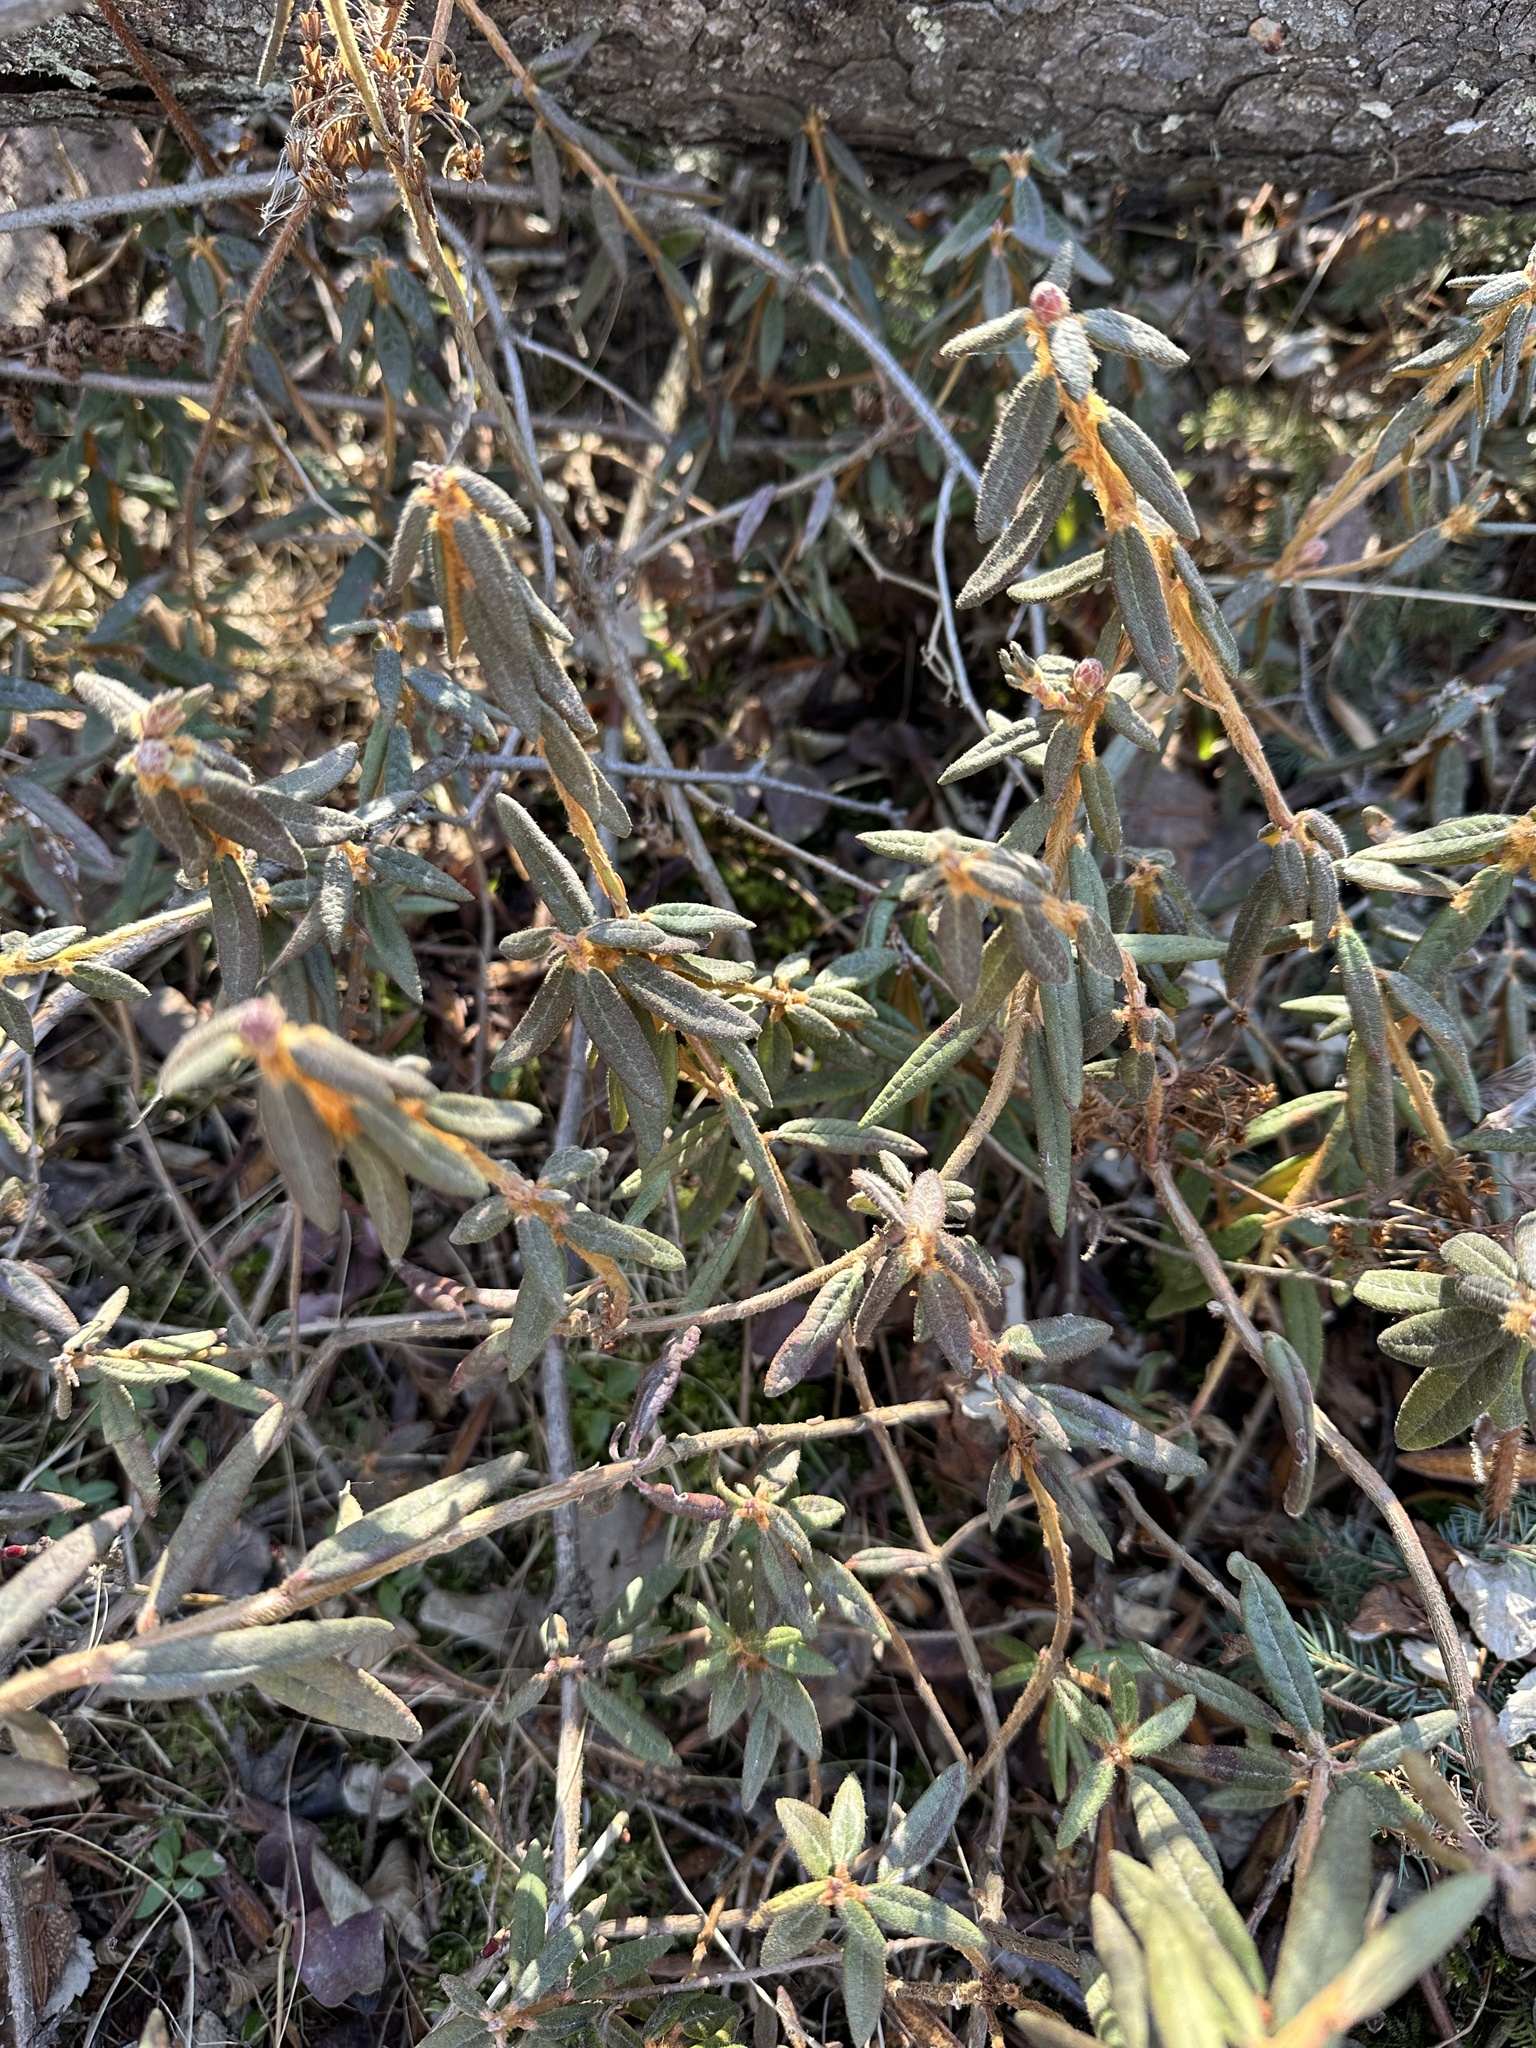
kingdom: Plantae
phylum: Tracheophyta
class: Magnoliopsida
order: Ericales
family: Ericaceae
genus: Rhododendron
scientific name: Rhododendron groenlandicum
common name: Bog labrador tea
